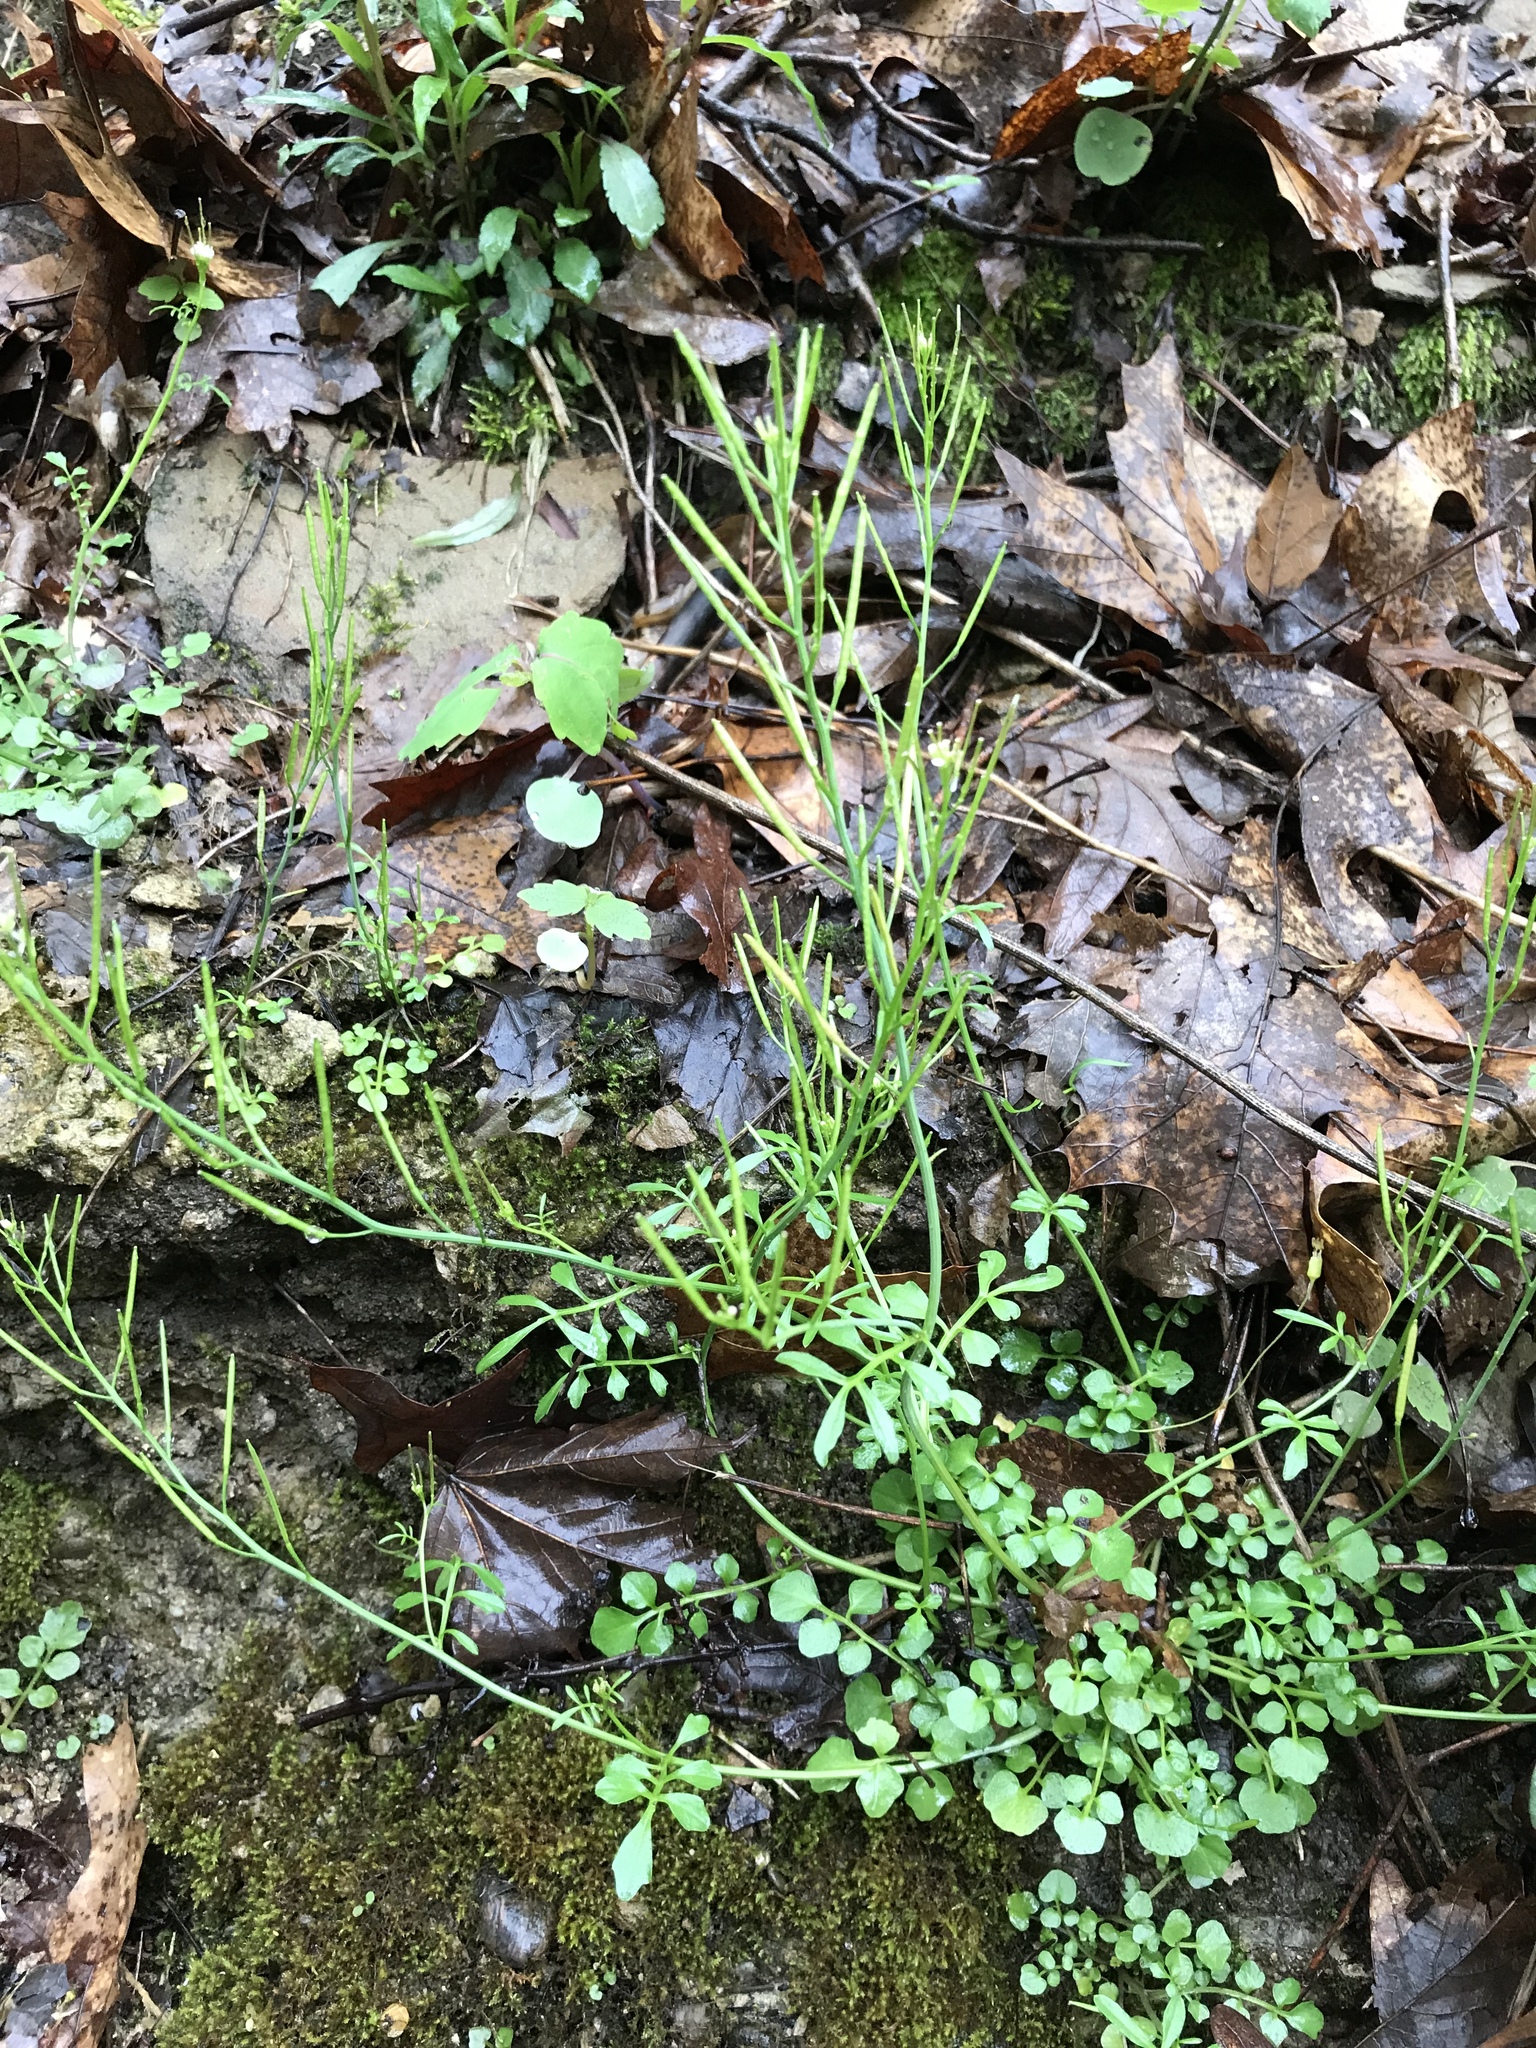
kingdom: Plantae
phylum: Tracheophyta
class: Magnoliopsida
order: Brassicales
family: Brassicaceae
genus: Cardamine
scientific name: Cardamine hirsuta
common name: Hairy bittercress
